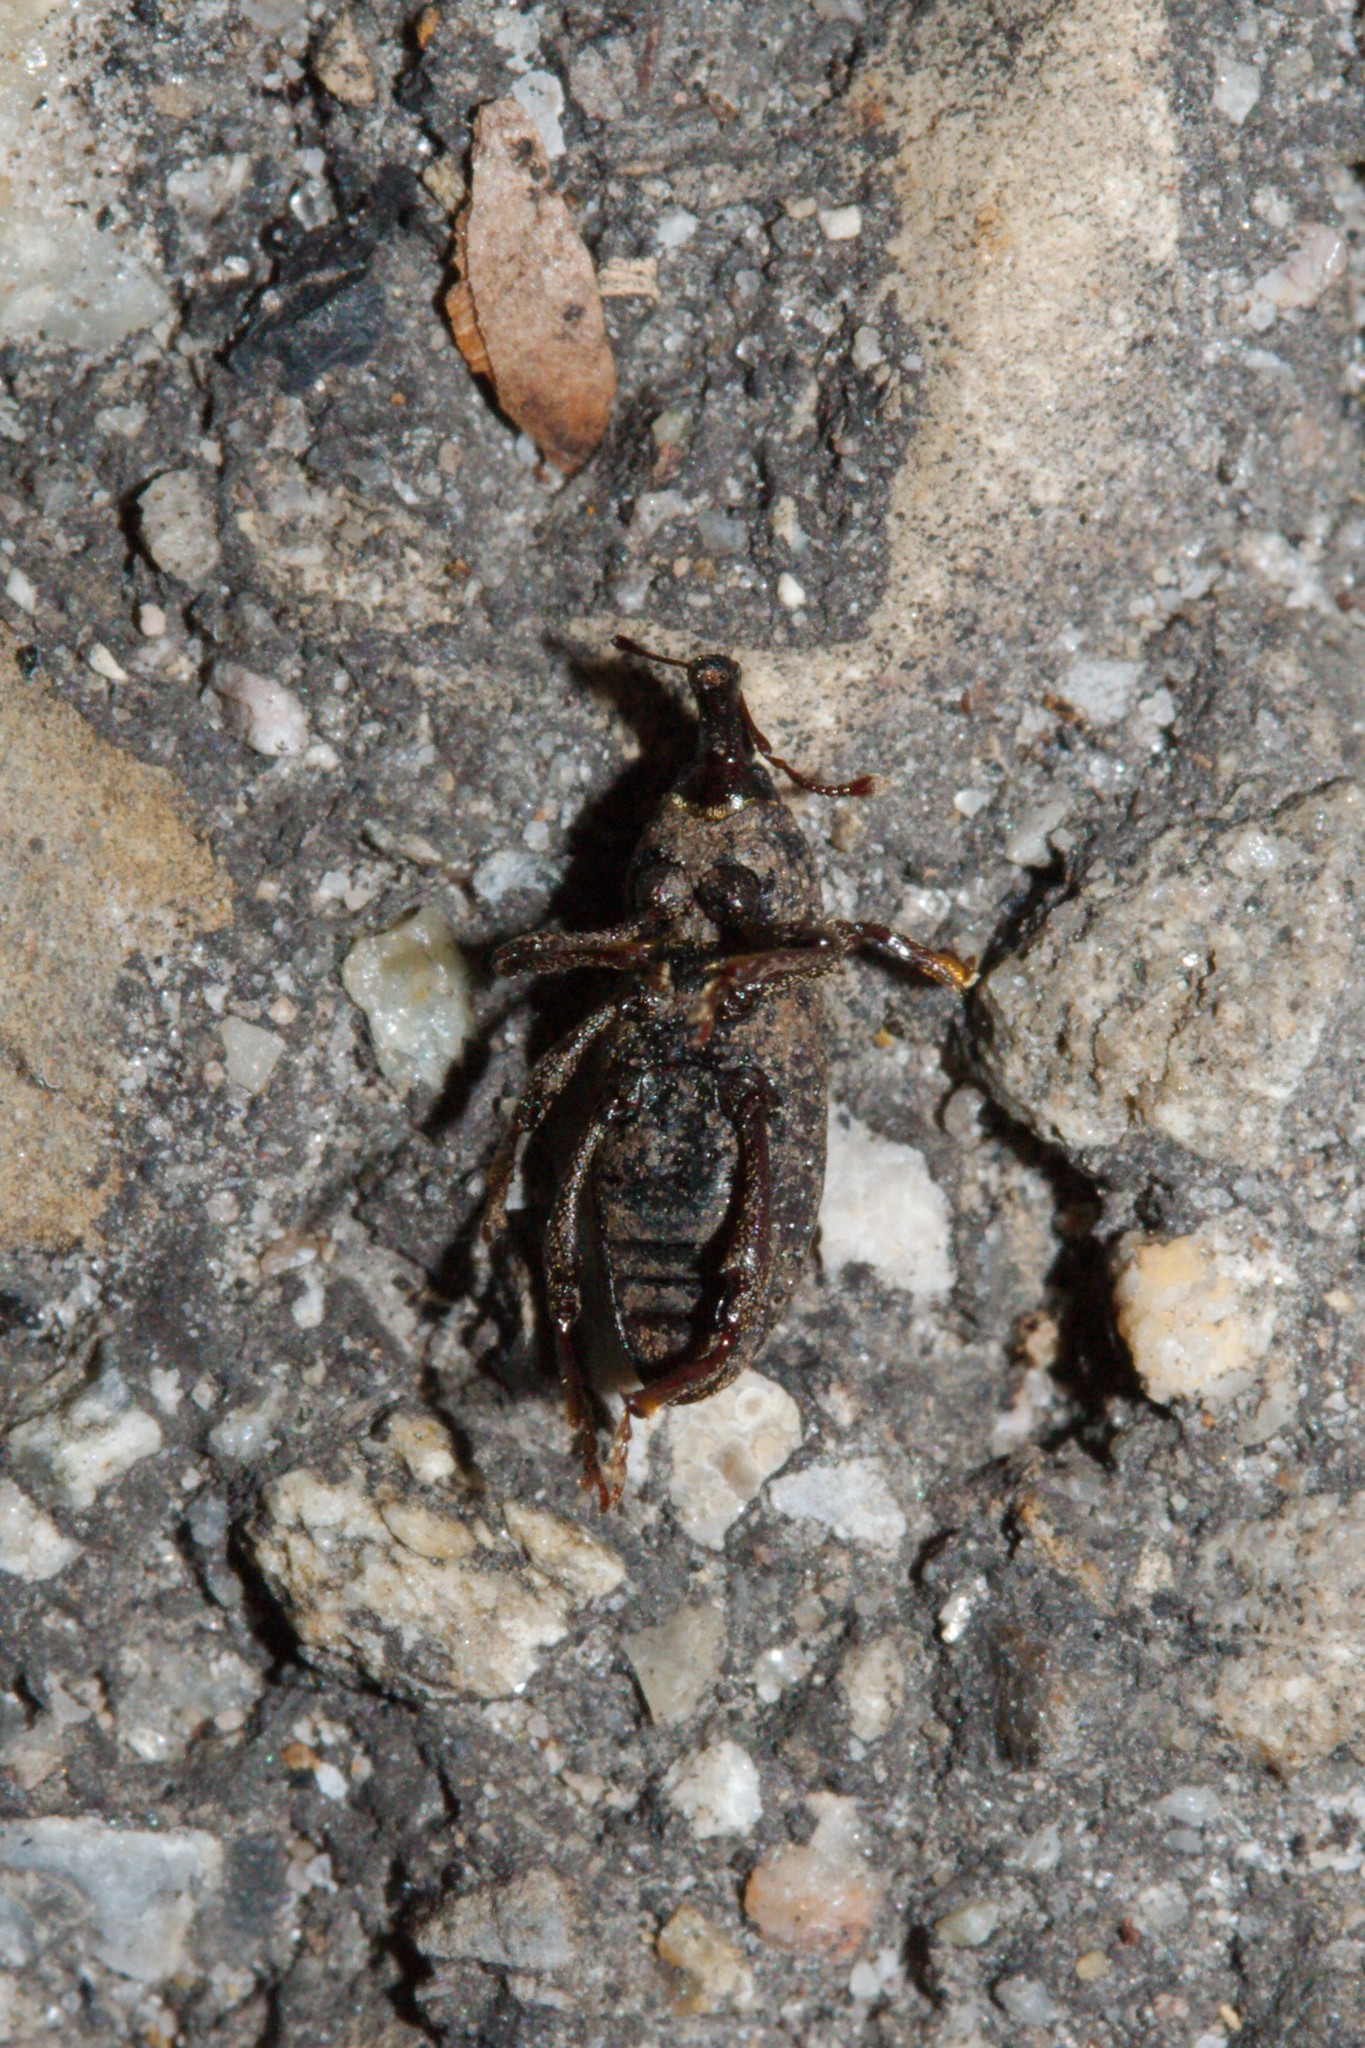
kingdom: Animalia
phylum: Arthropoda
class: Insecta
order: Coleoptera
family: Curculionidae
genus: Mitoplinthus
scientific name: Mitoplinthus caliginosus
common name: Hop root weevil
